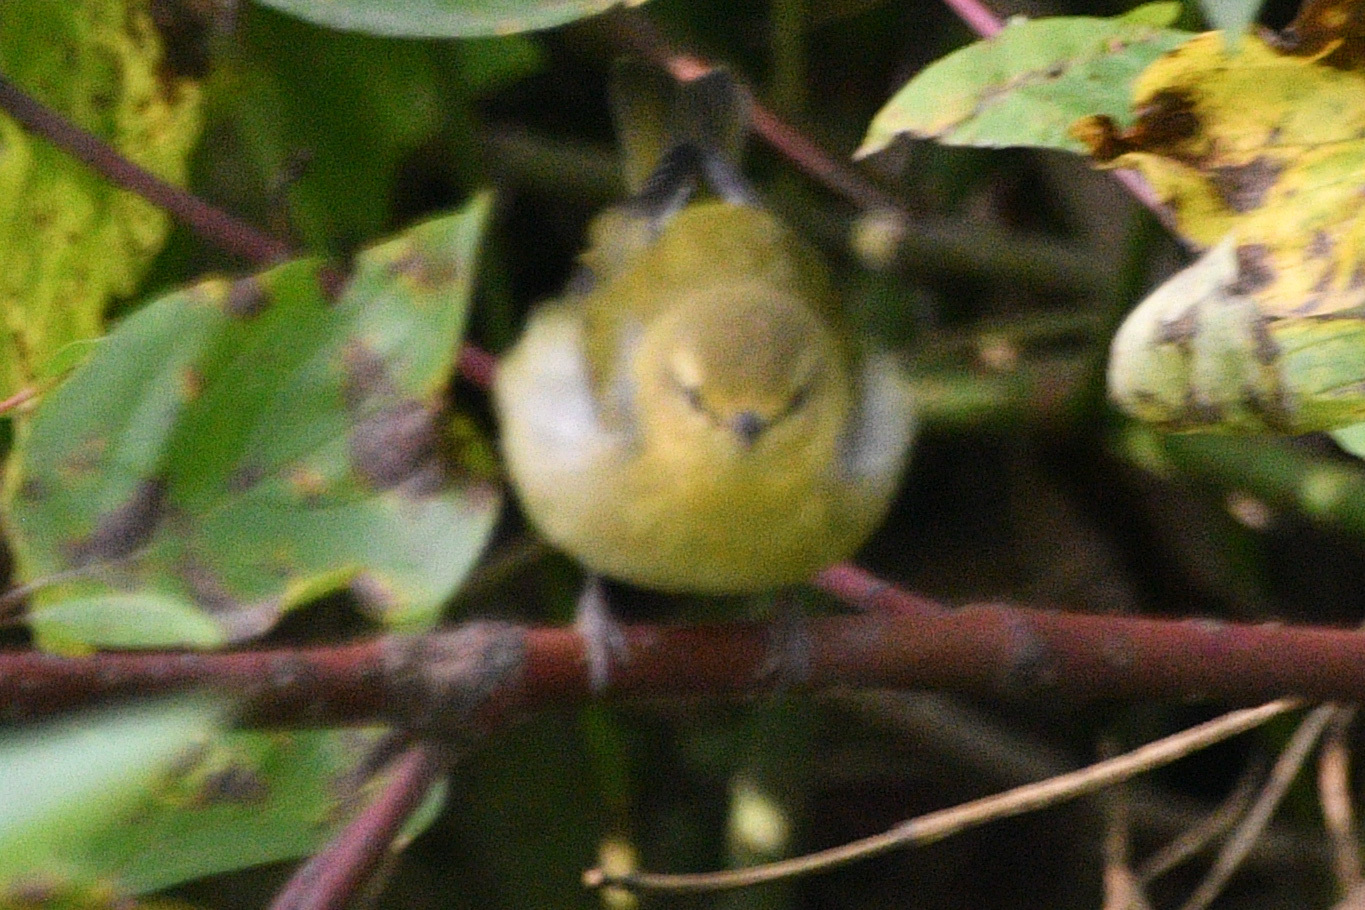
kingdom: Animalia
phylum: Chordata
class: Aves
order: Passeriformes
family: Parulidae
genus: Leiothlypis
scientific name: Leiothlypis peregrina
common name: Tennessee warbler
